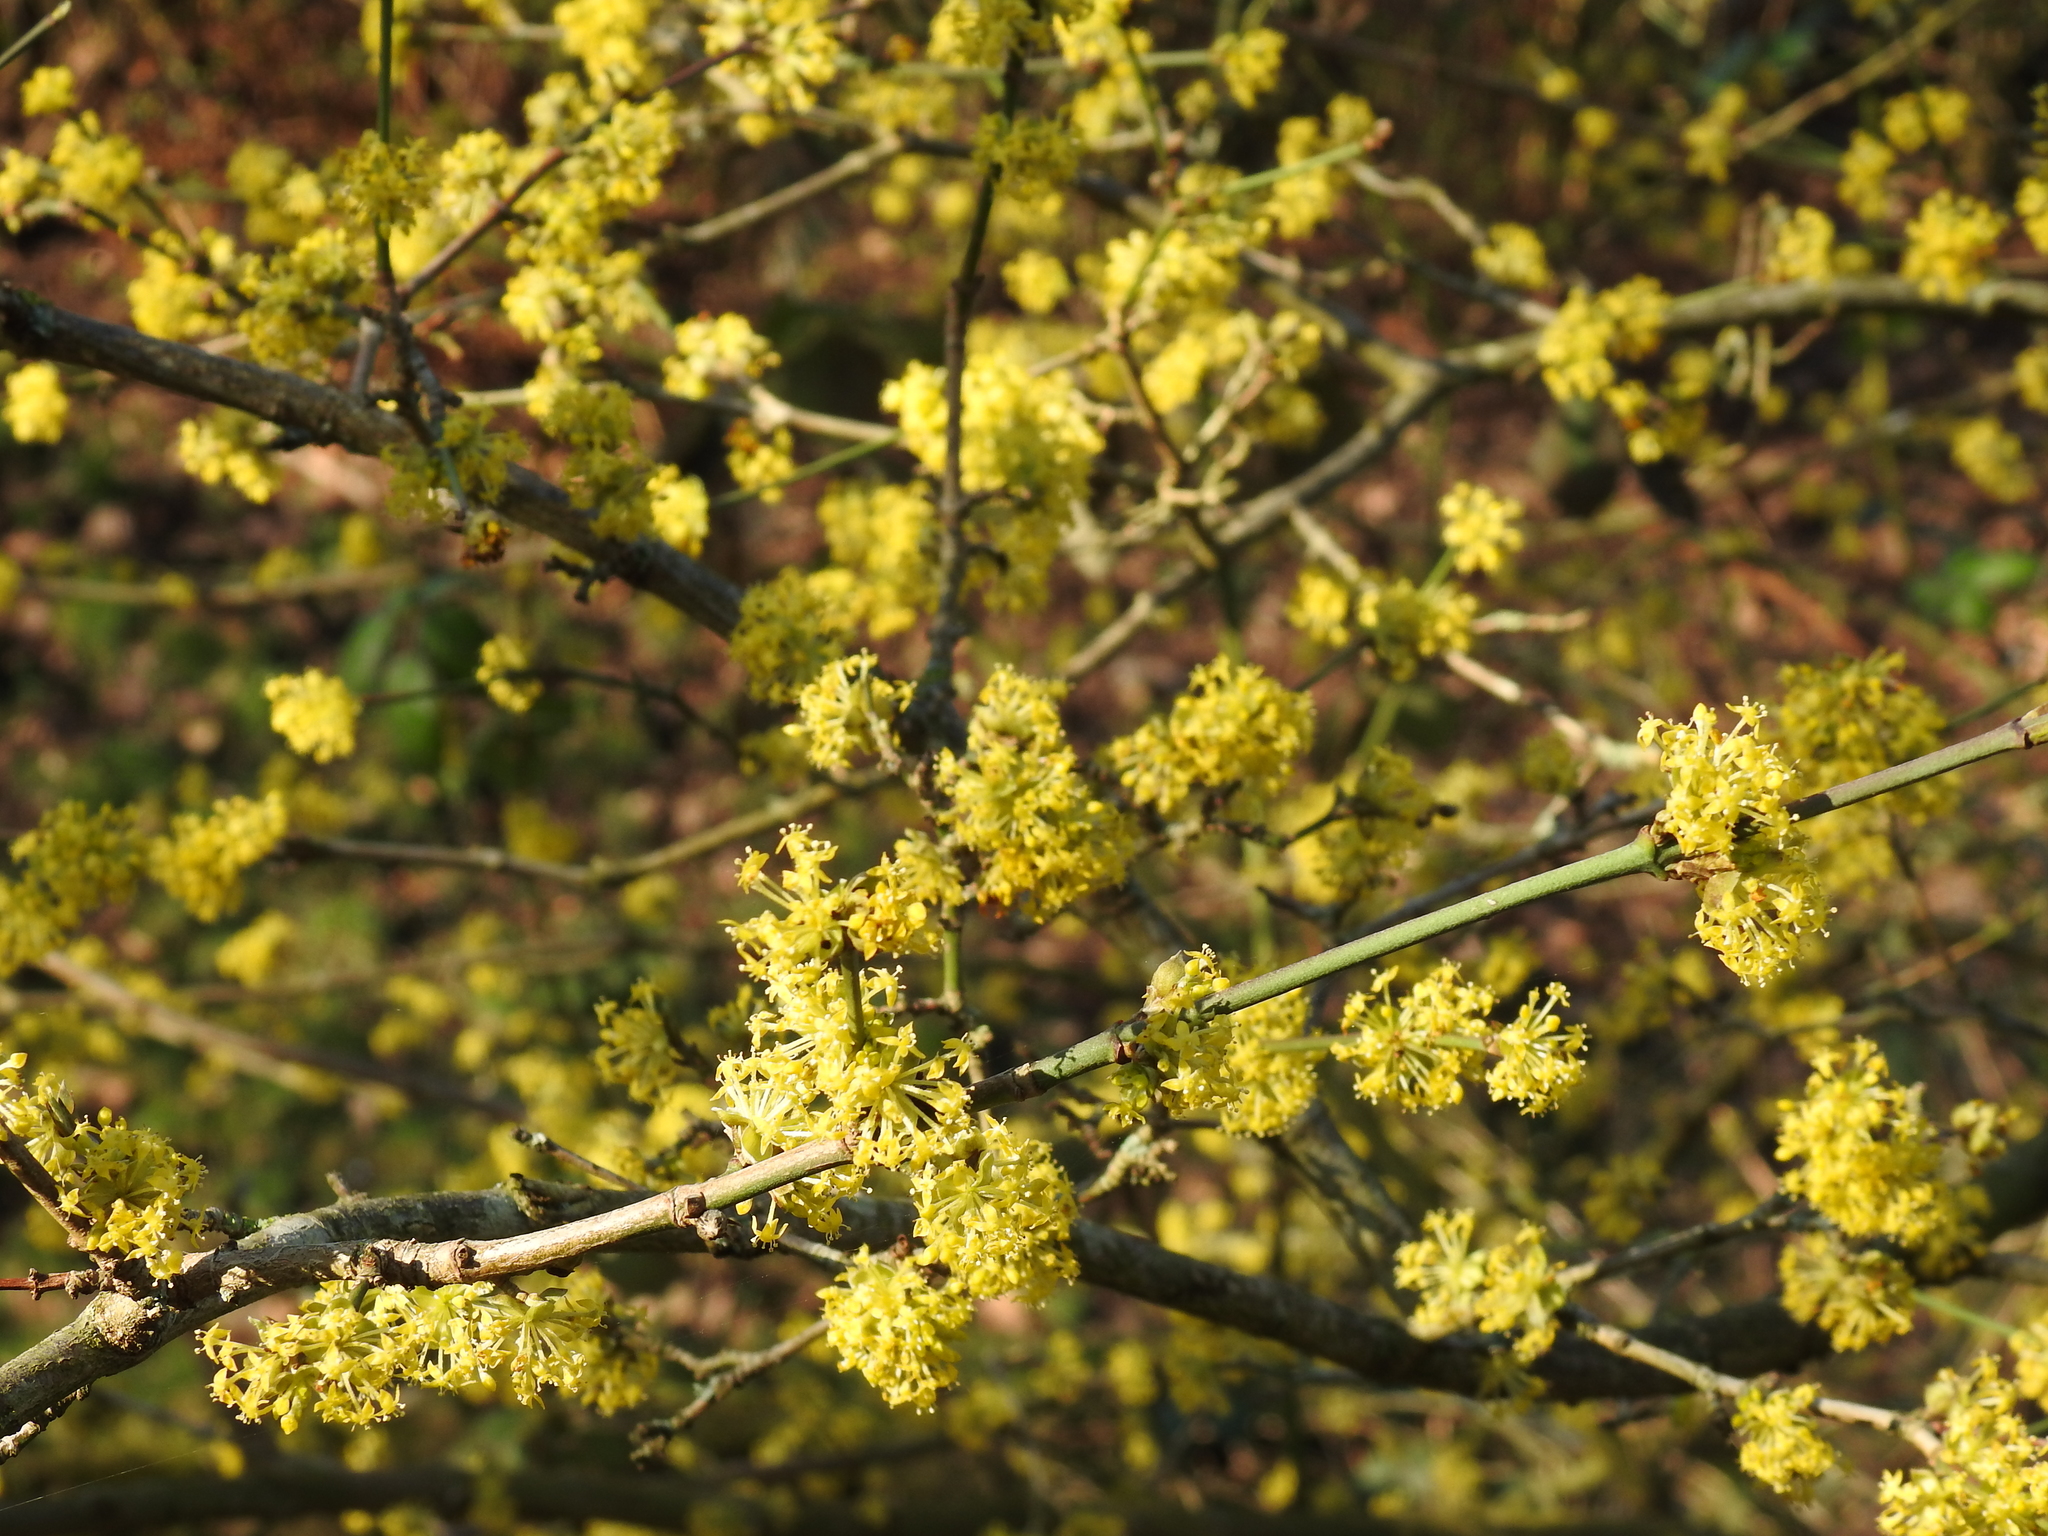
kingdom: Plantae
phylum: Tracheophyta
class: Magnoliopsida
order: Cornales
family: Cornaceae
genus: Cornus
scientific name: Cornus mas
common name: Cornelian-cherry
